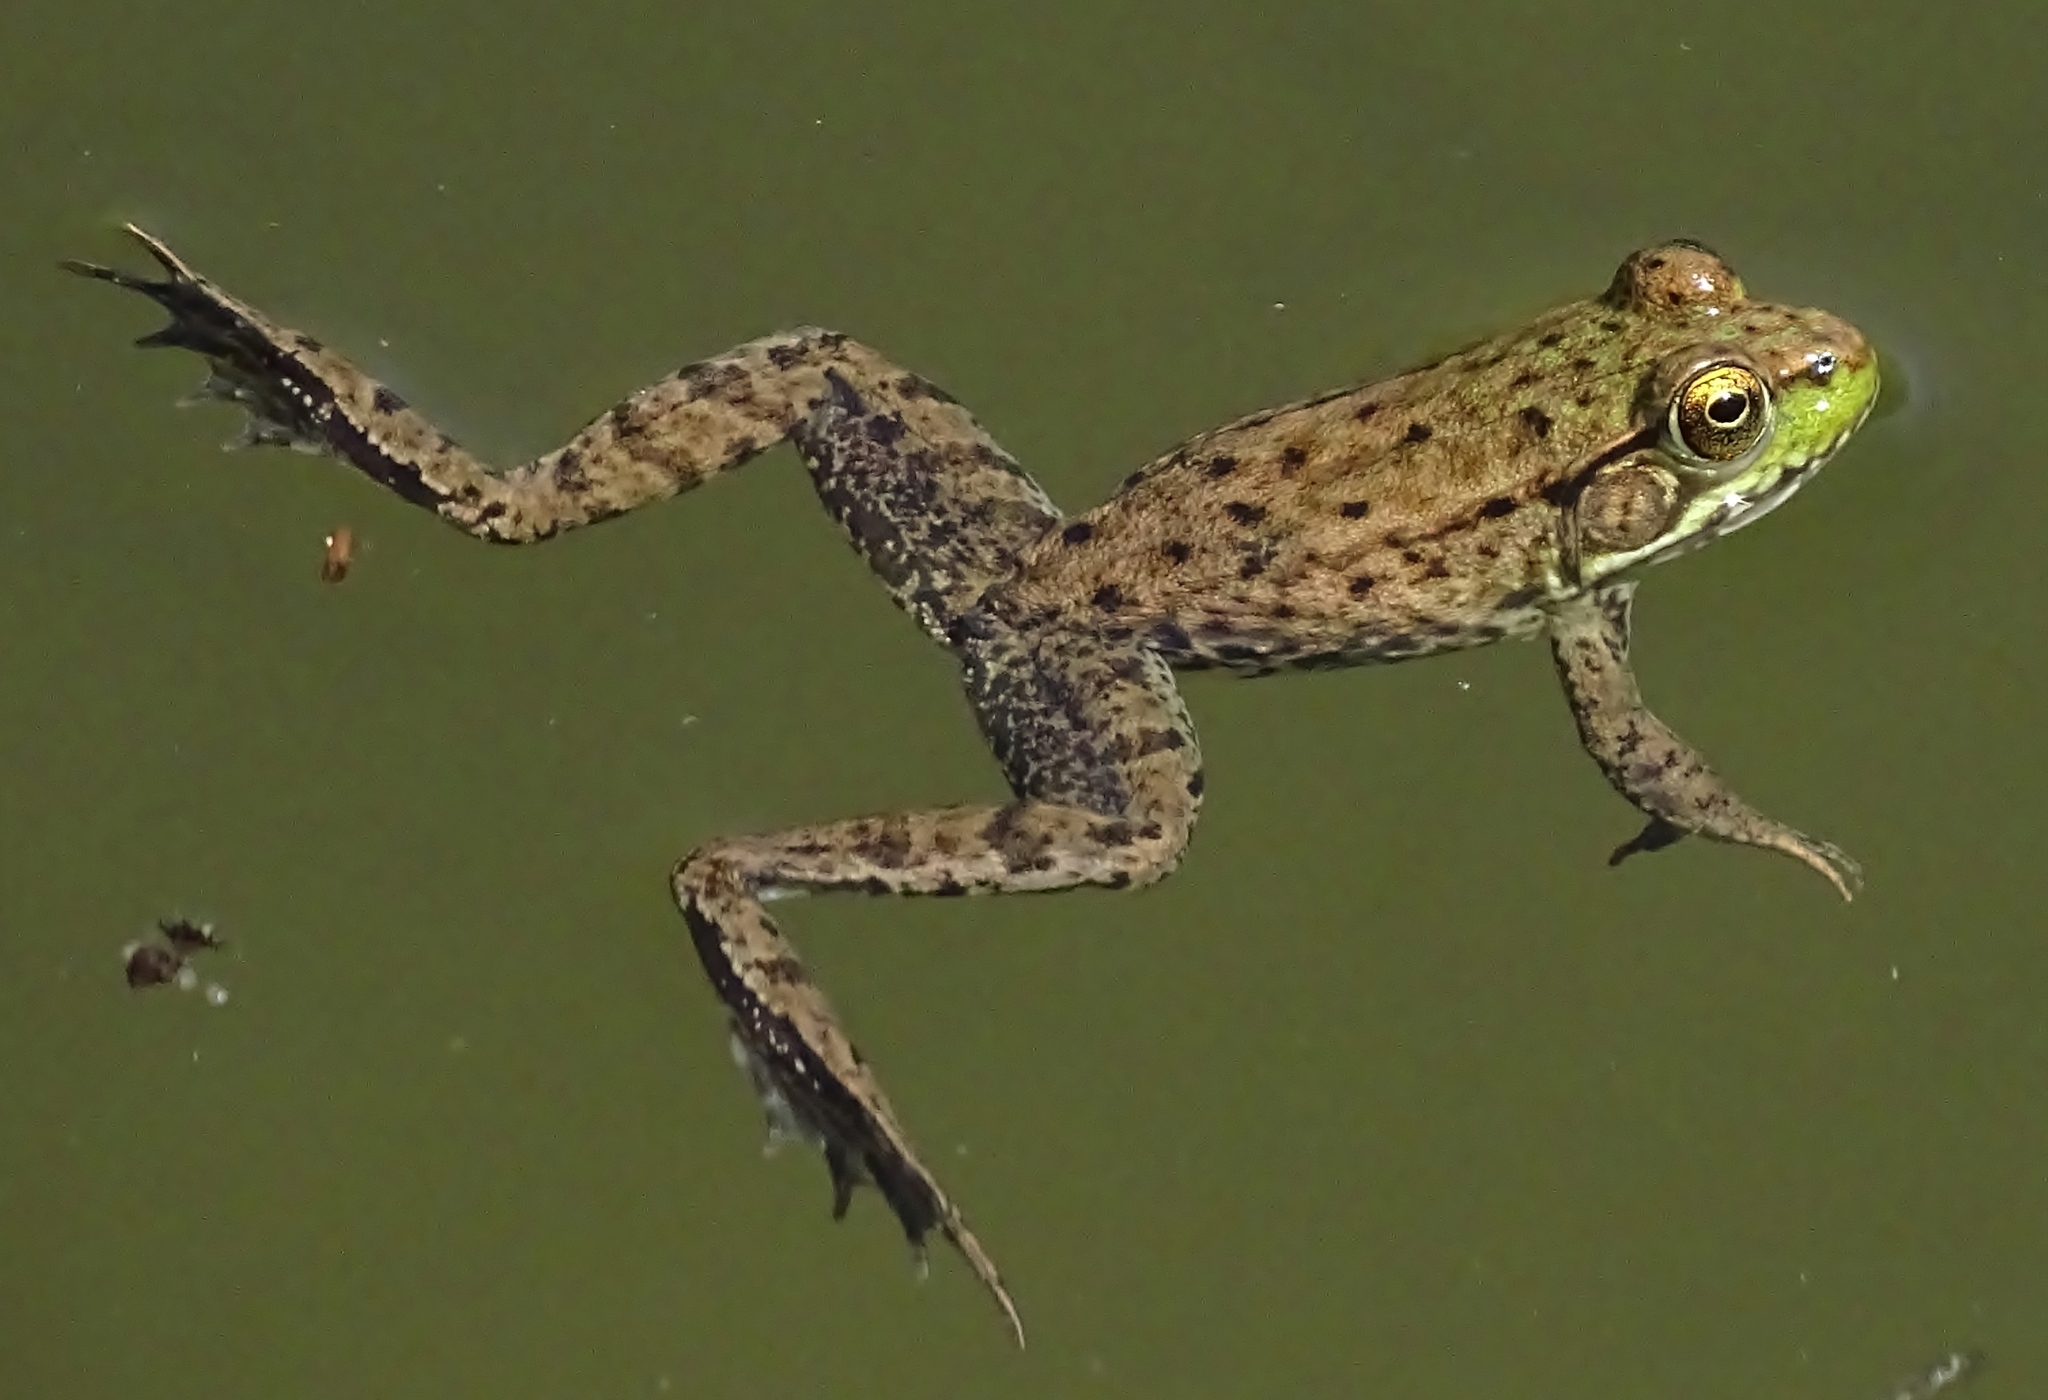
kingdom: Animalia
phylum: Chordata
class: Amphibia
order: Anura
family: Ranidae
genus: Lithobates
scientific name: Lithobates clamitans
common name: Green frog
